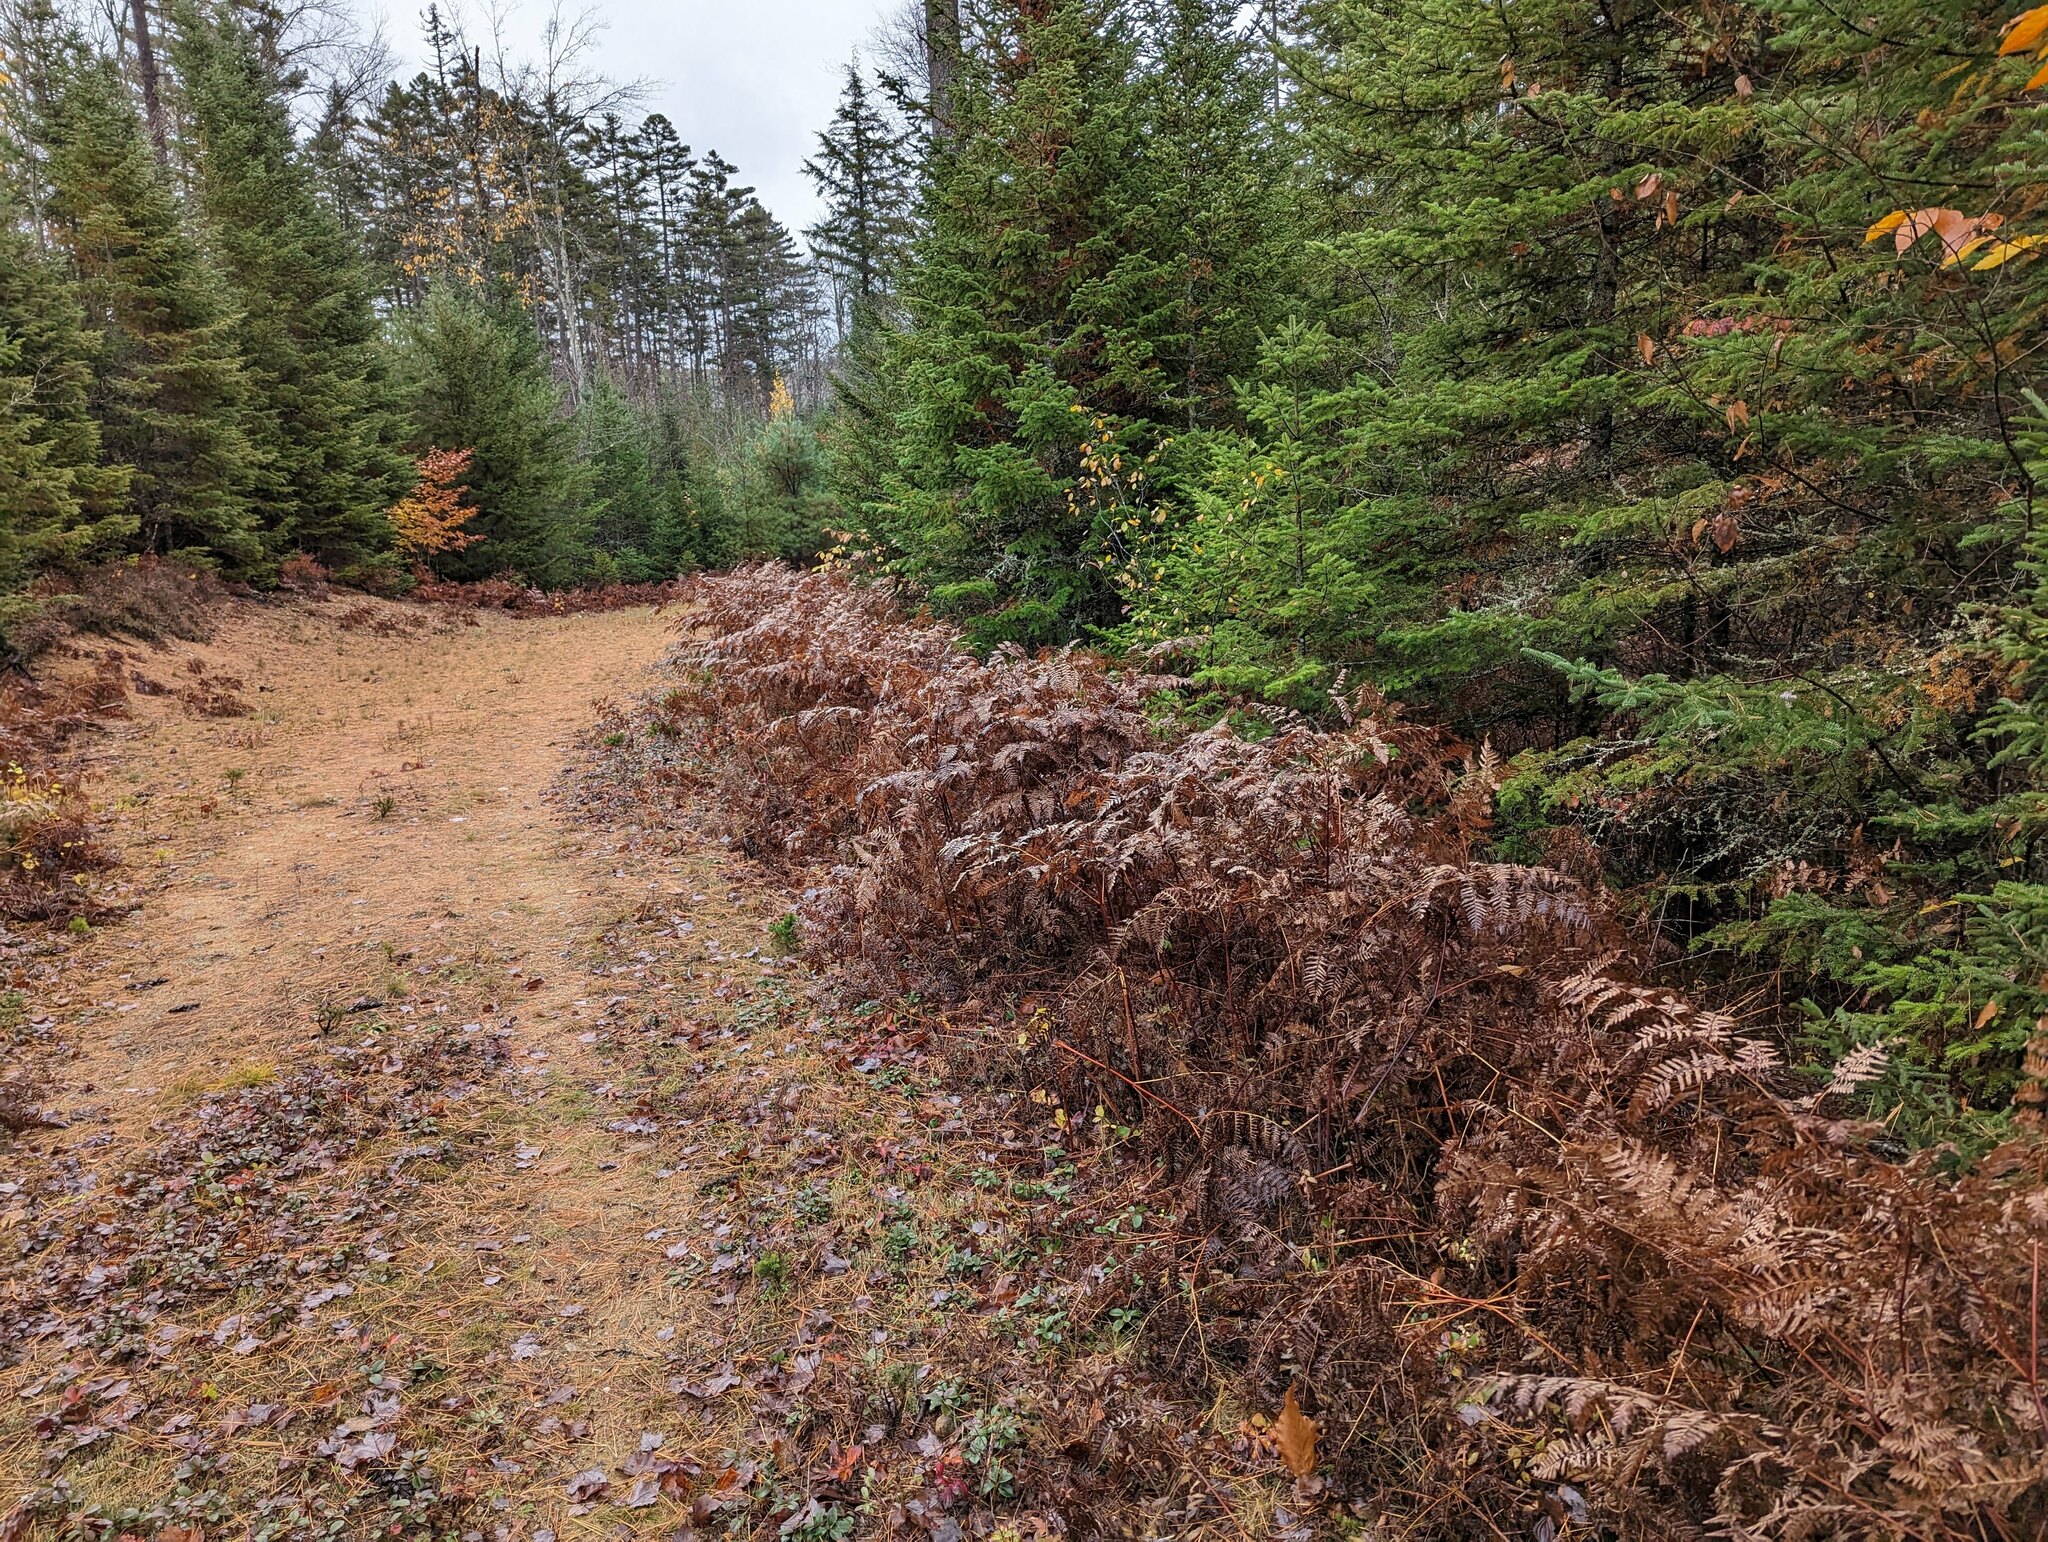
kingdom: Plantae
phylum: Tracheophyta
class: Polypodiopsida
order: Polypodiales
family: Dennstaedtiaceae
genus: Pteridium
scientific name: Pteridium aquilinum
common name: Bracken
